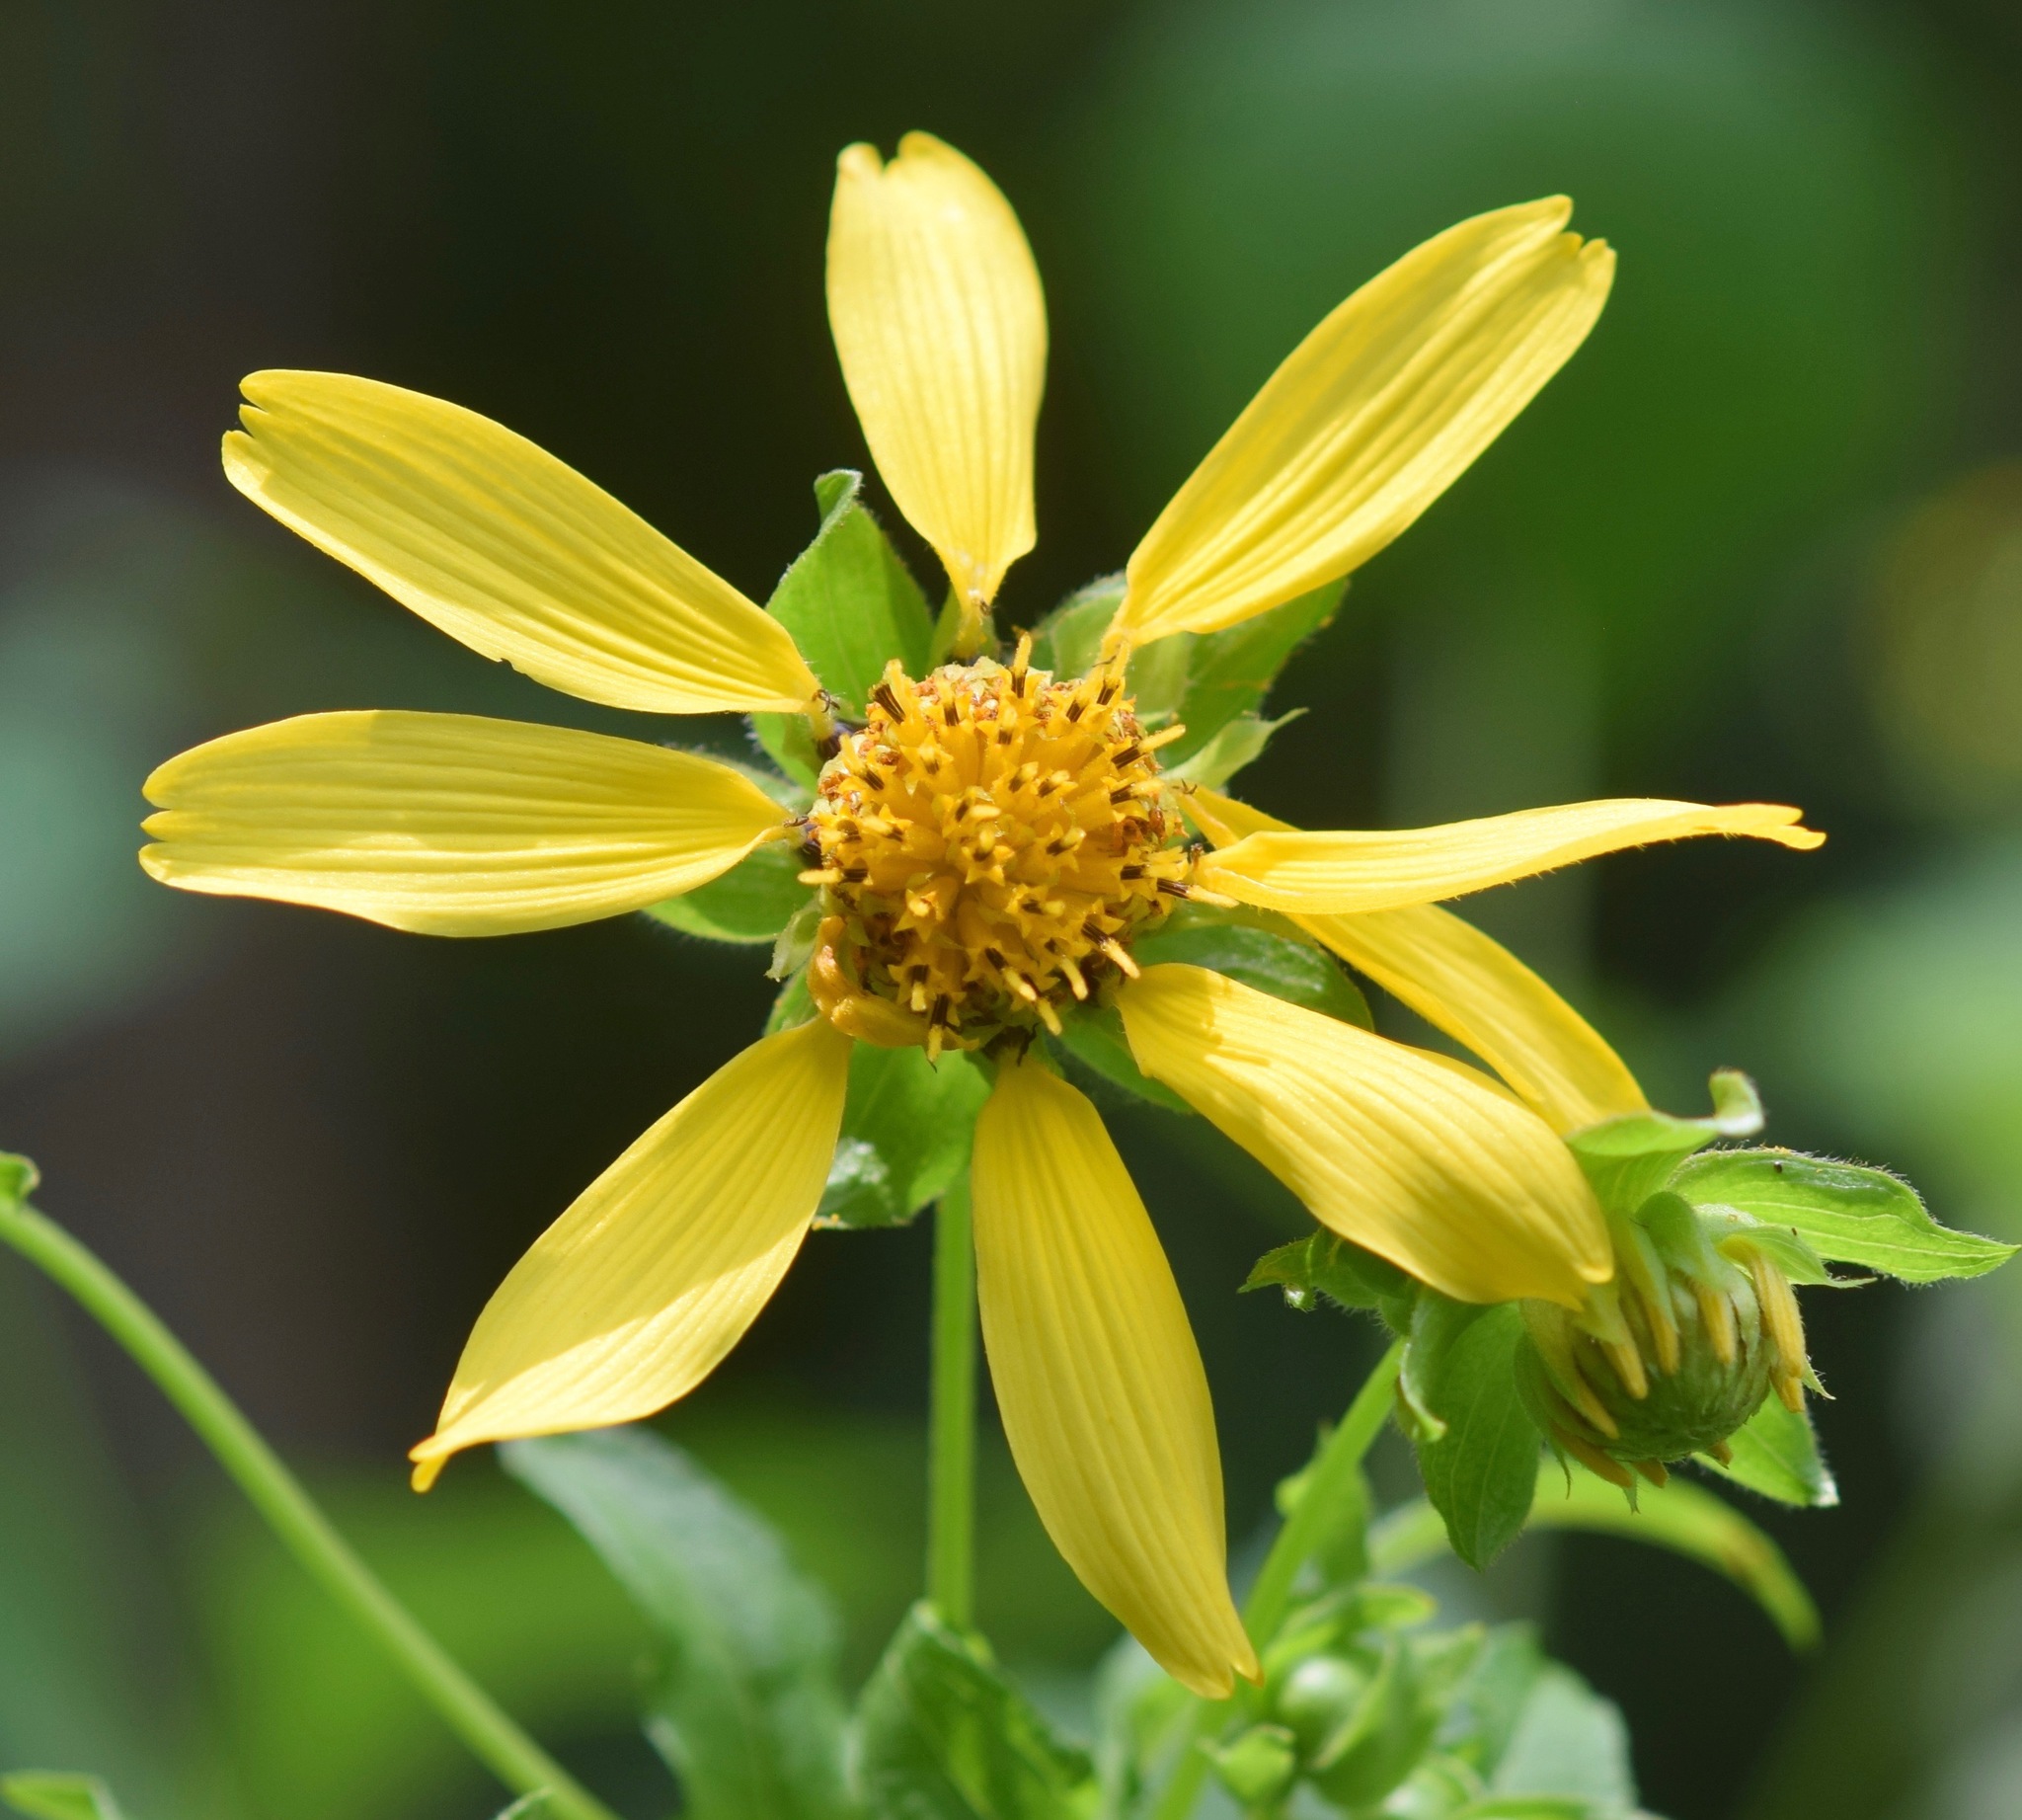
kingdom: Plantae
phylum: Tracheophyta
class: Magnoliopsida
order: Asterales
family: Asteraceae
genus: Smallanthus
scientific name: Smallanthus uvedalia
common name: Bear's-foot
